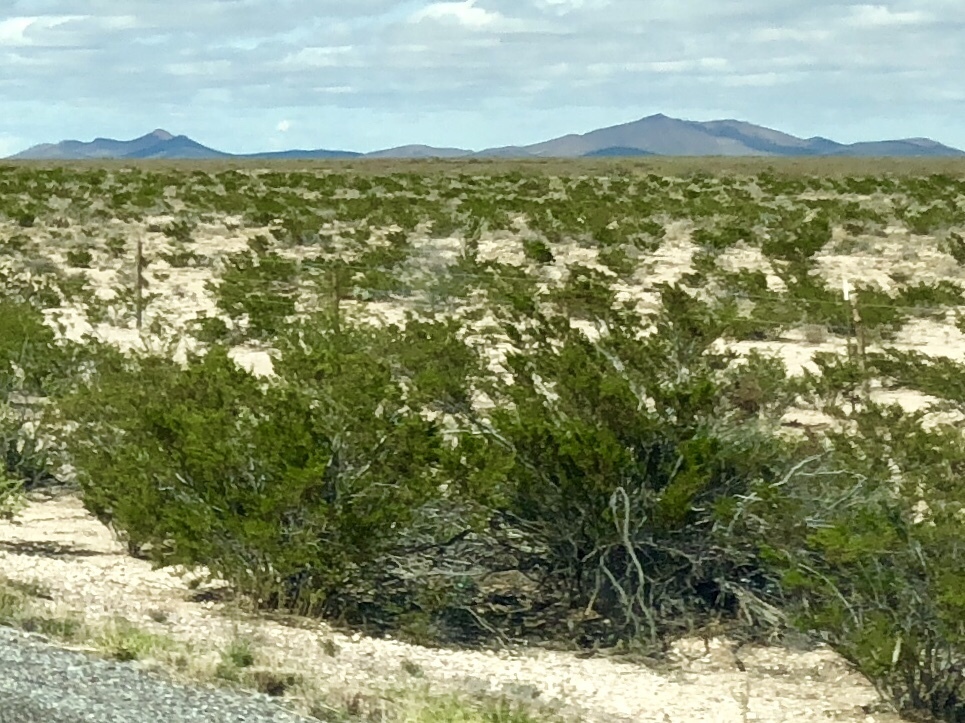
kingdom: Plantae
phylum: Tracheophyta
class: Magnoliopsida
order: Zygophyllales
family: Zygophyllaceae
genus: Larrea
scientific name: Larrea tridentata
